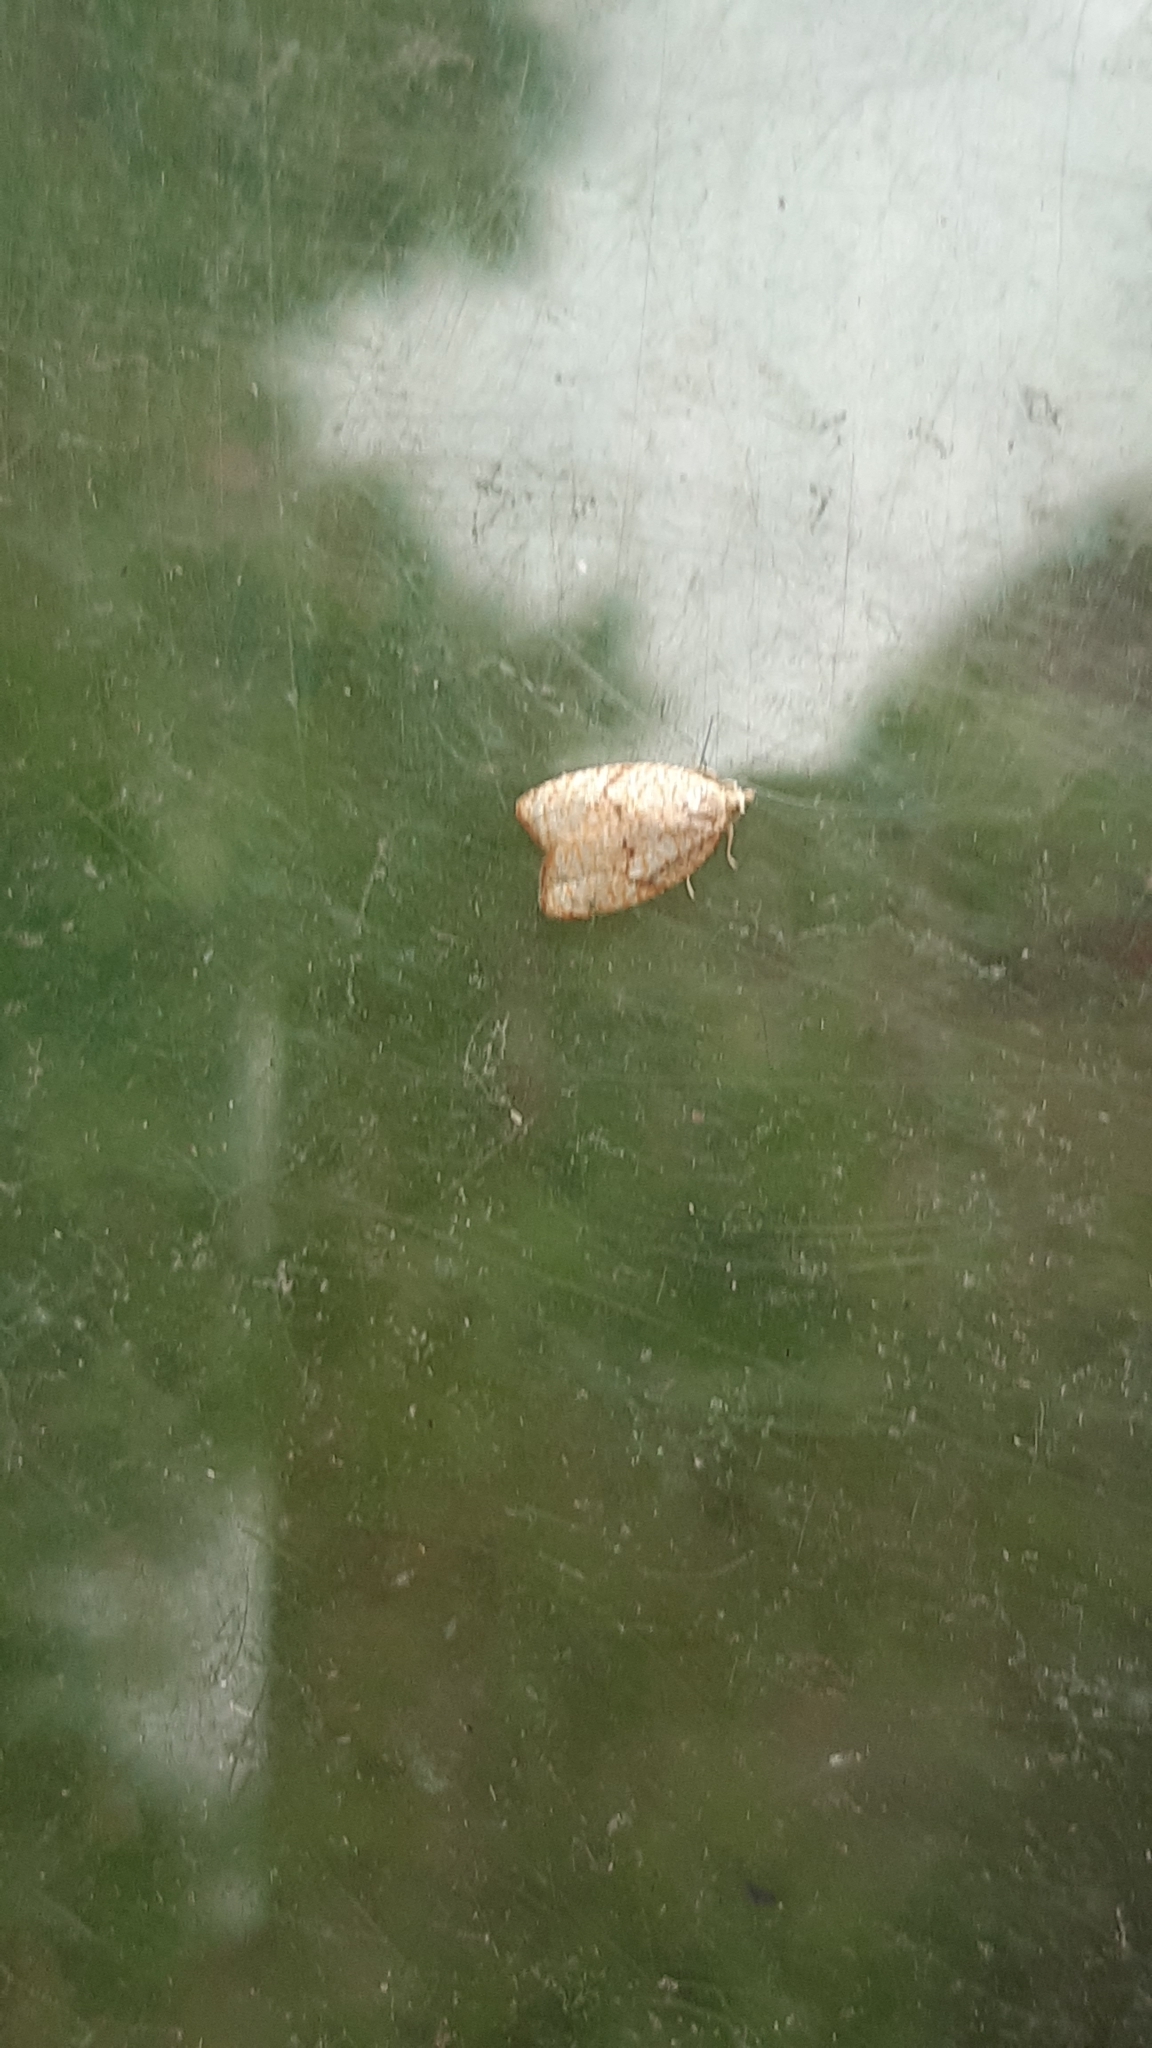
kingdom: Animalia
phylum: Arthropoda
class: Insecta
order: Lepidoptera
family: Tortricidae
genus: Acleris
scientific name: Acleris forsskaleana
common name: Maple button
